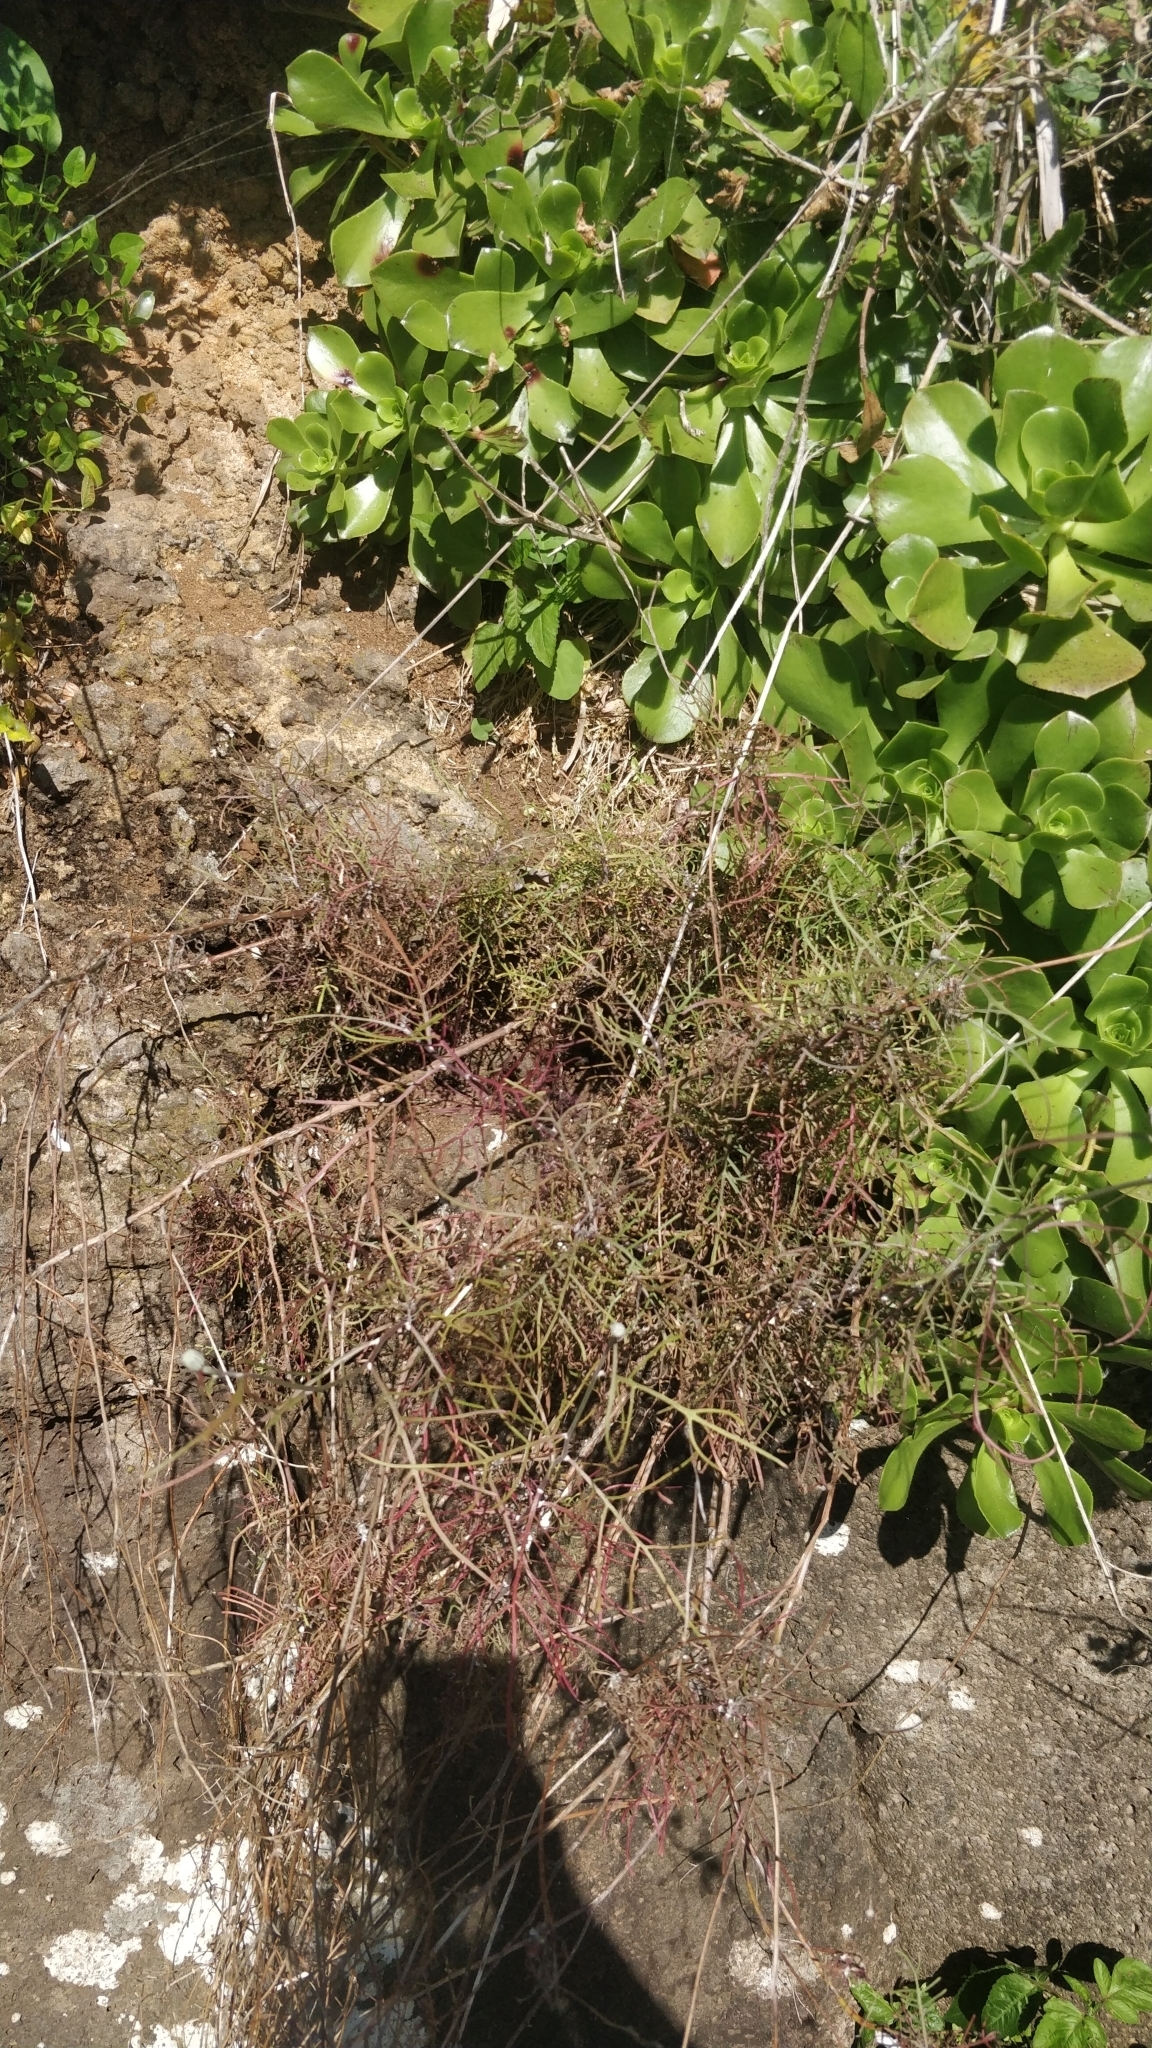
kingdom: Plantae
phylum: Tracheophyta
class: Magnoliopsida
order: Asterales
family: Asteraceae
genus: Tolpis
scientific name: Tolpis succulenta
